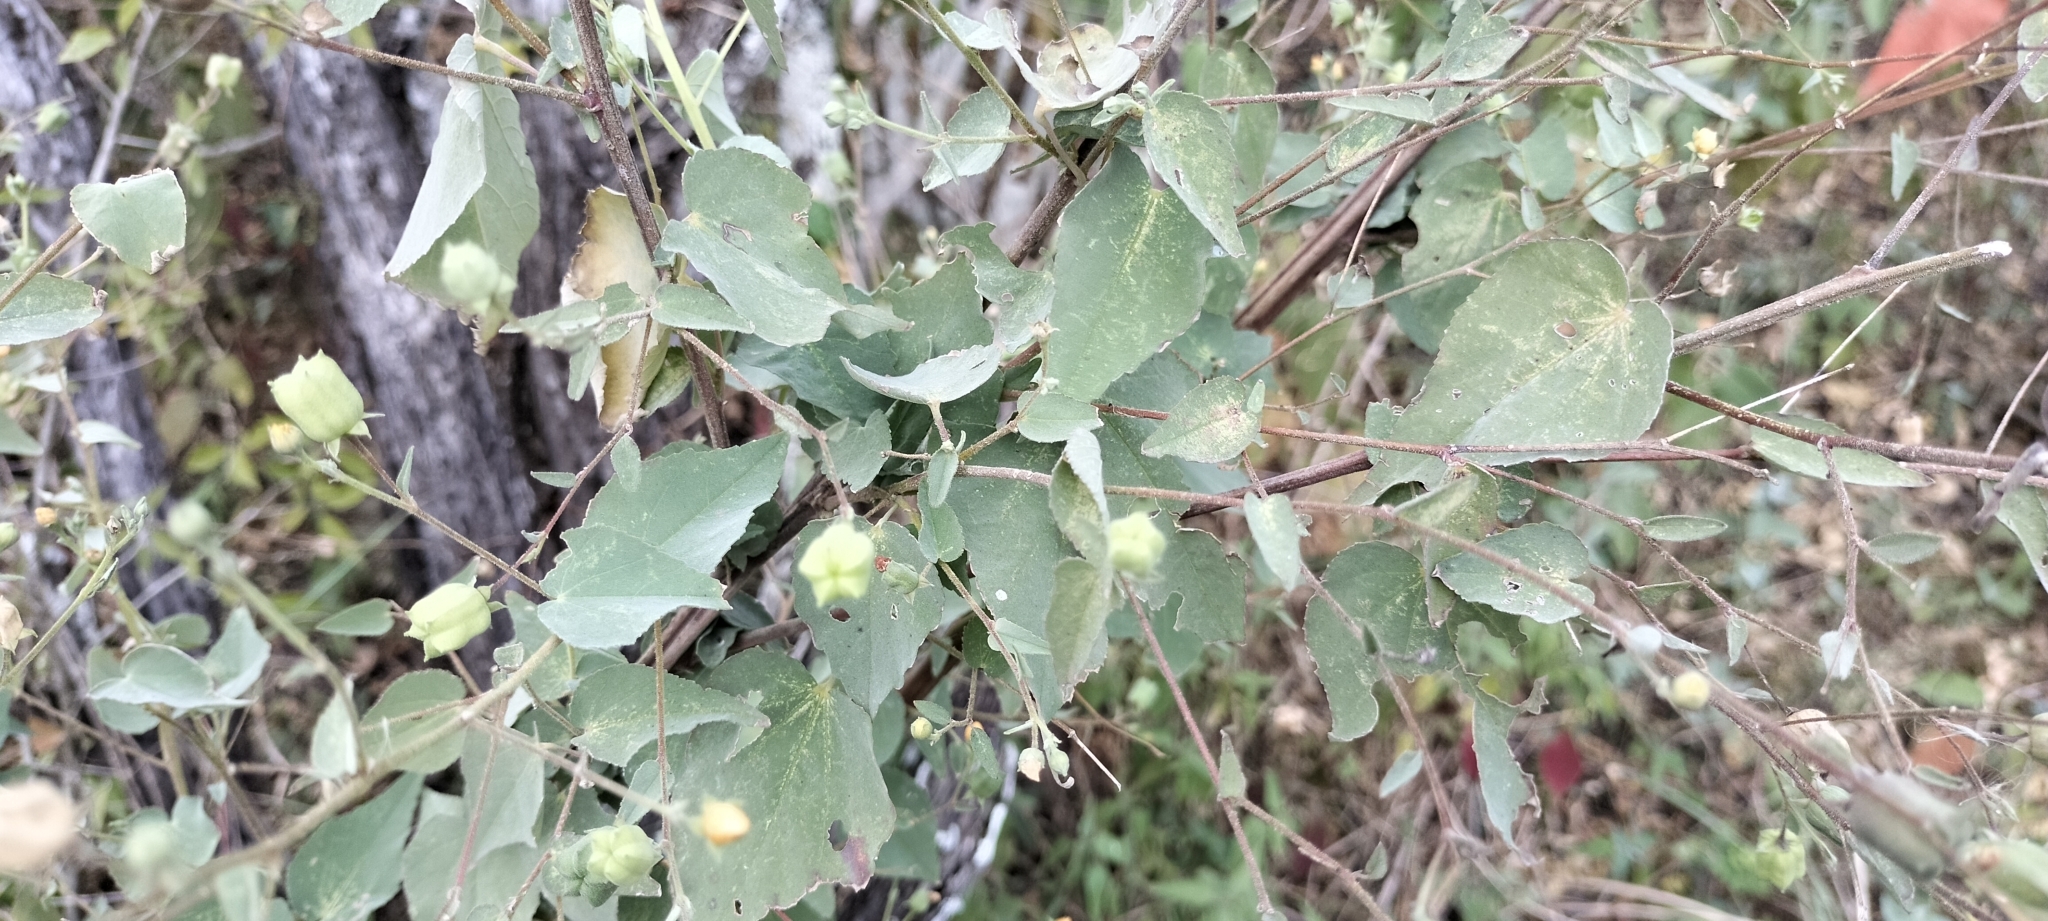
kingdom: Plantae
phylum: Tracheophyta
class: Magnoliopsida
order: Malvales
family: Malvaceae
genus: Abutilon
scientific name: Abutilon trisulcatum
